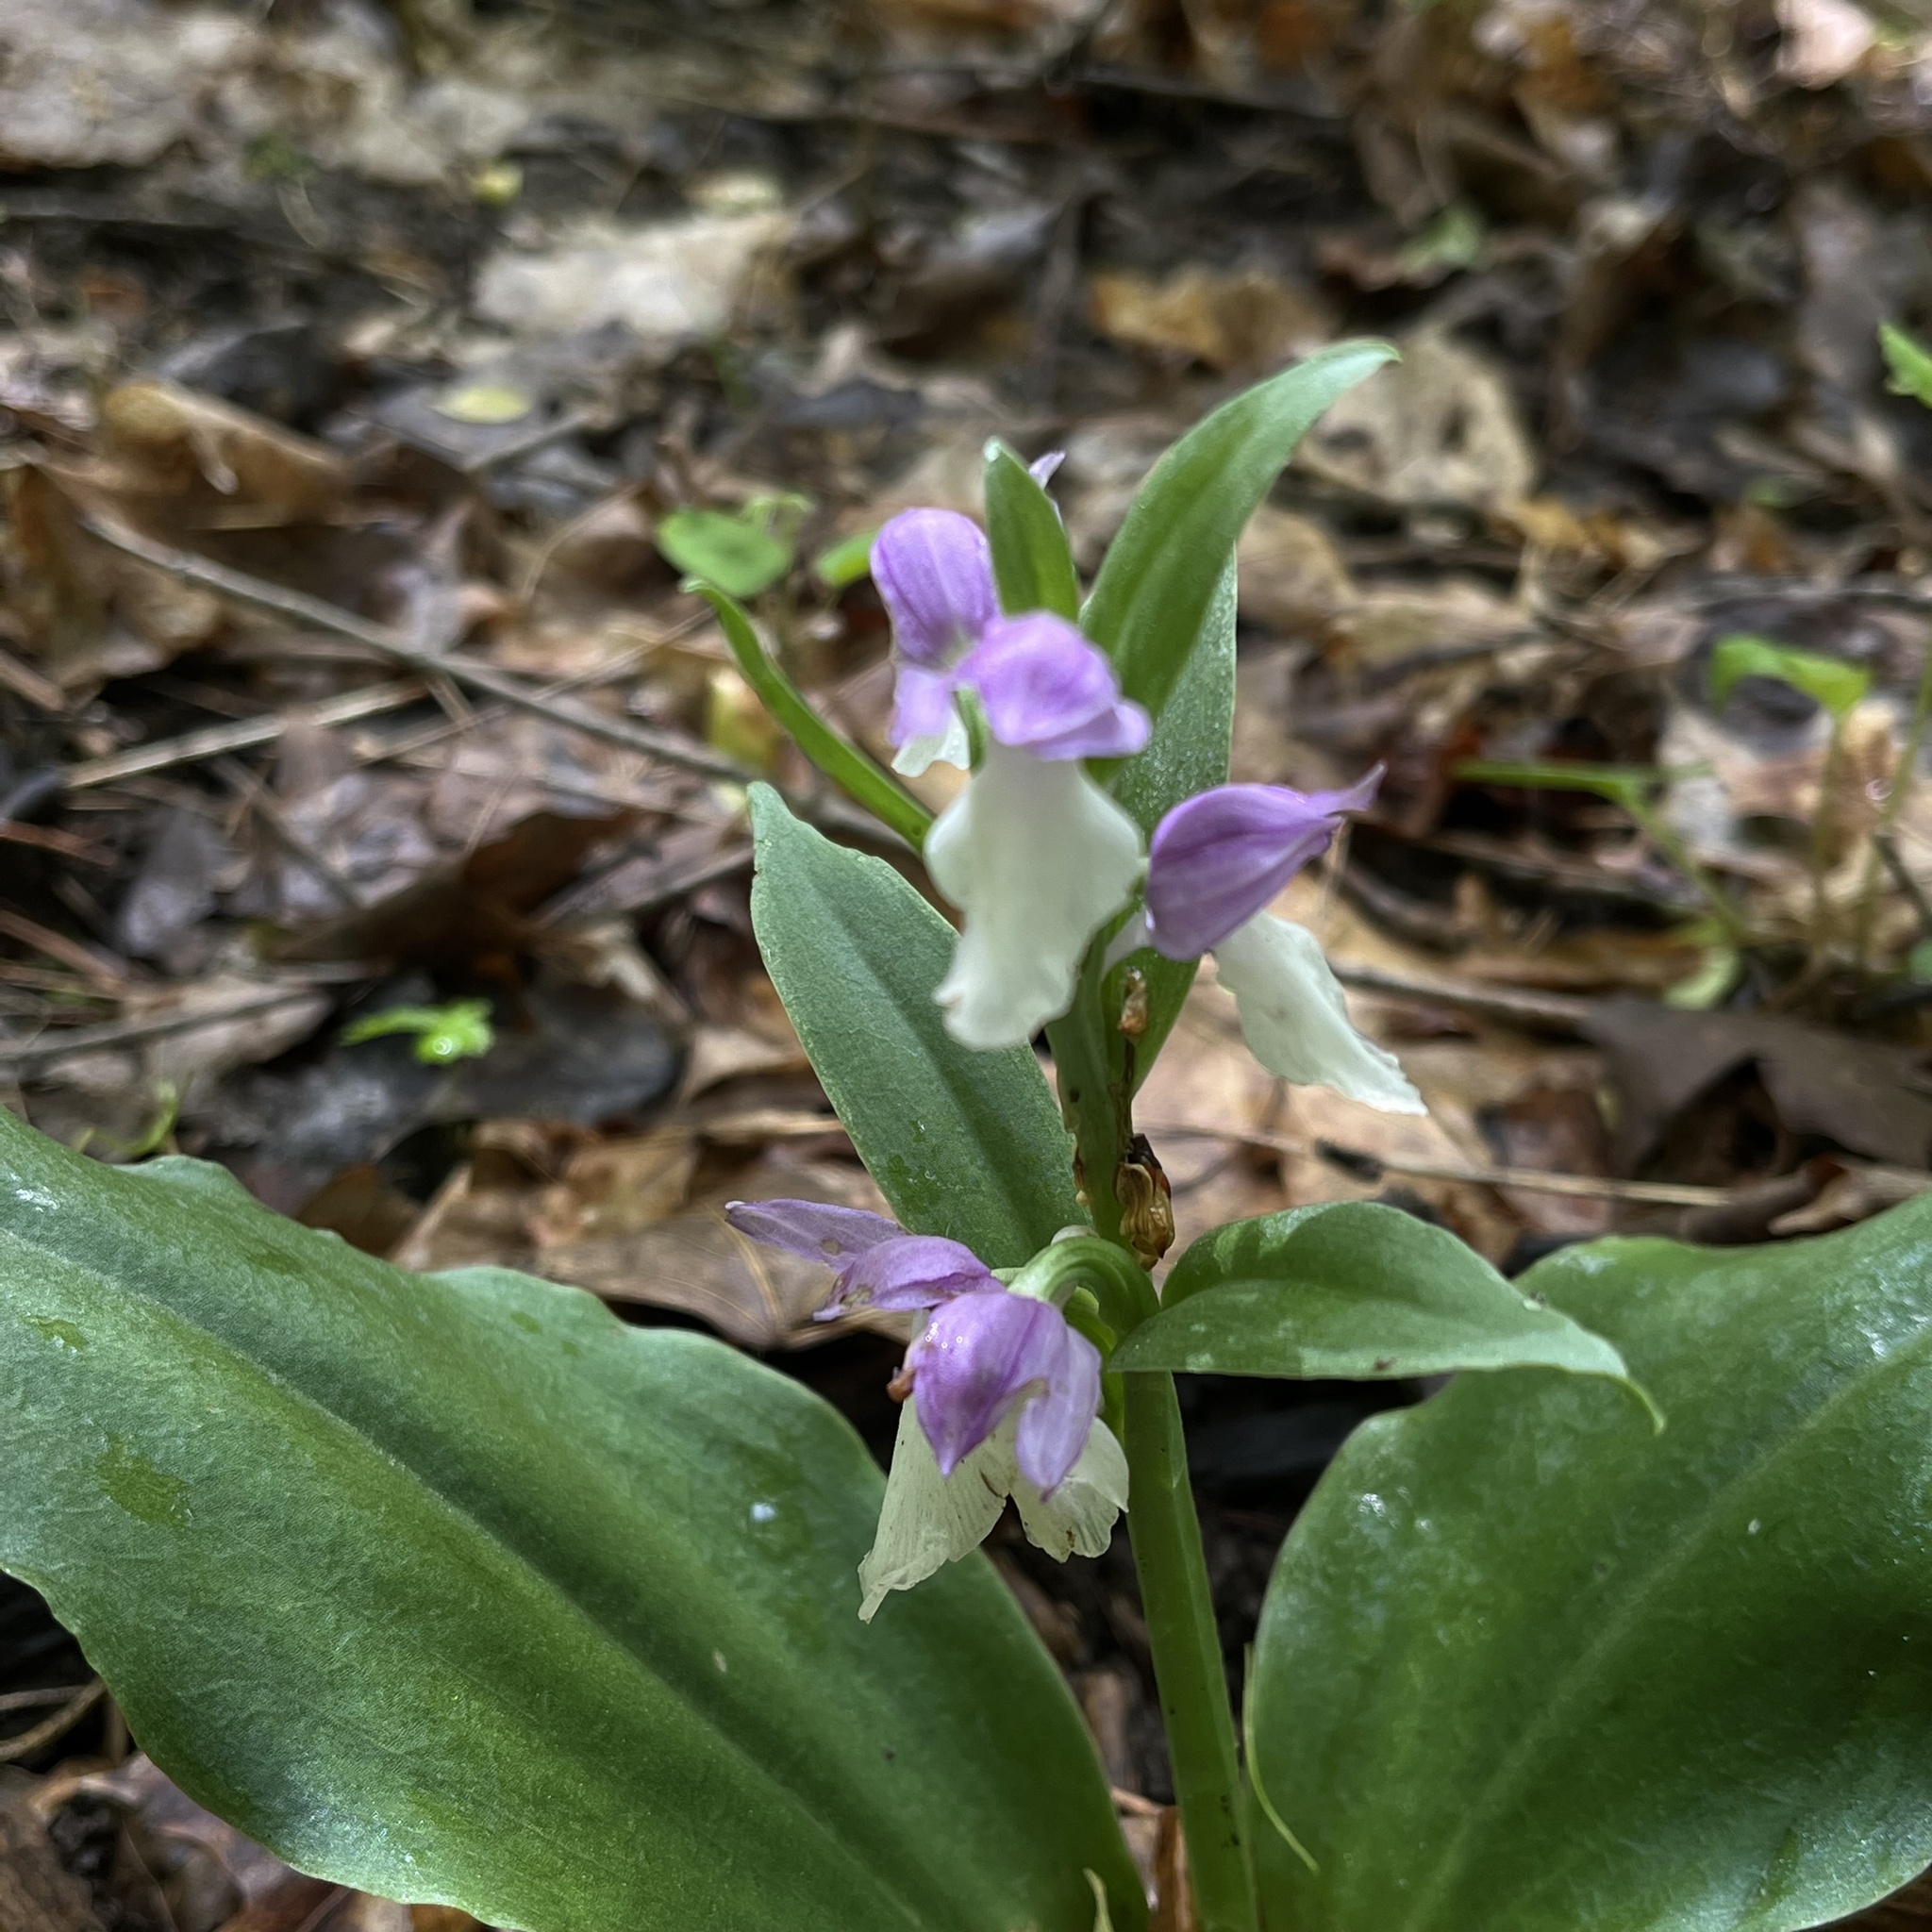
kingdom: Plantae
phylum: Tracheophyta
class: Liliopsida
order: Asparagales
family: Orchidaceae
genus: Galearis
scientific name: Galearis spectabilis
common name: Purple-hooded orchis
